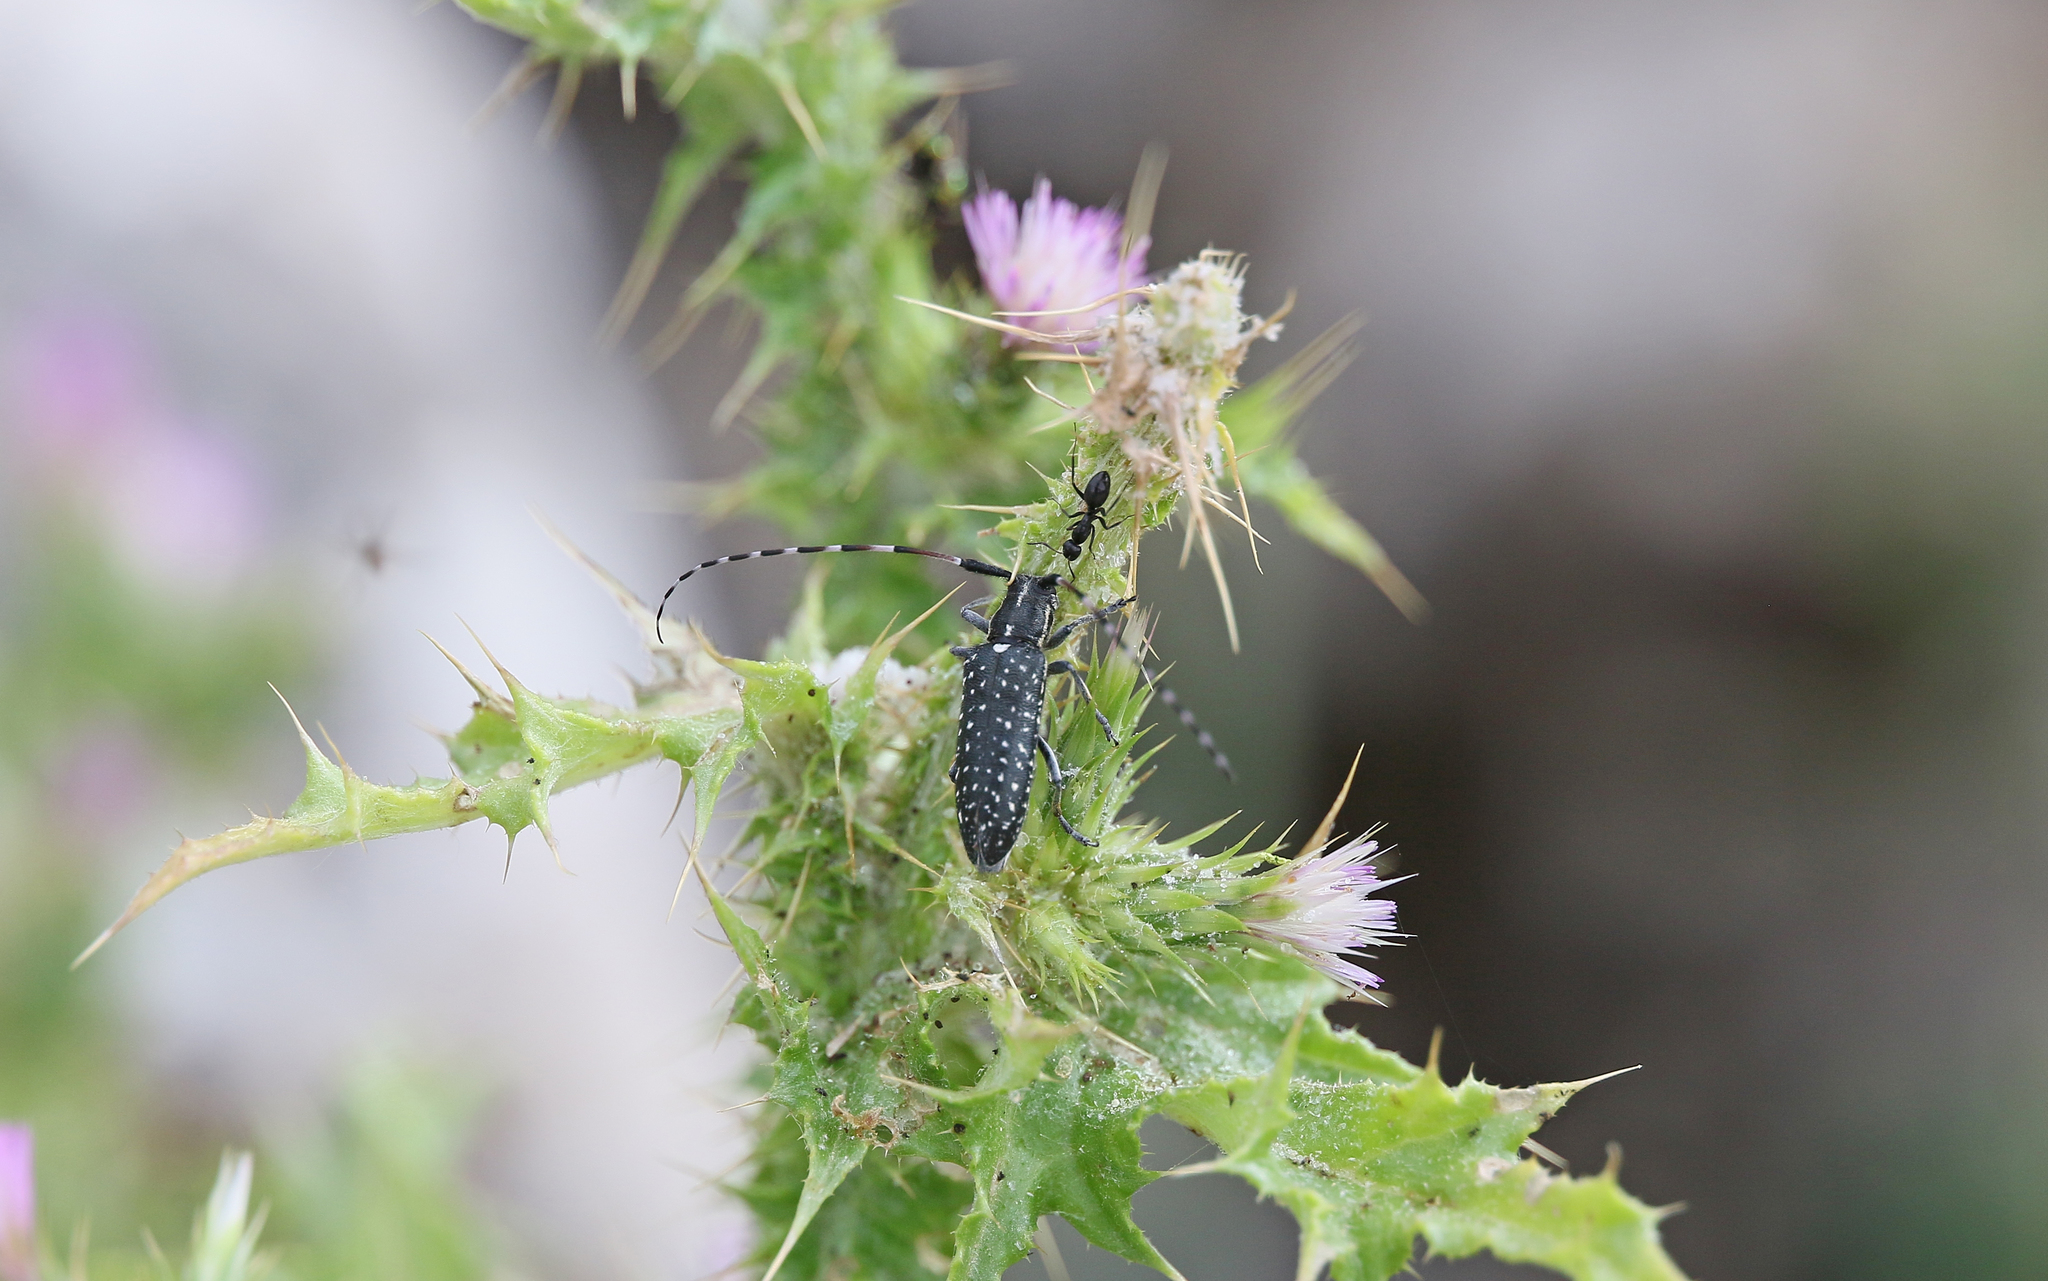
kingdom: Animalia
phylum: Arthropoda
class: Insecta
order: Coleoptera
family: Cerambycidae
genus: Agapanthia
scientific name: Agapanthia irrorata
